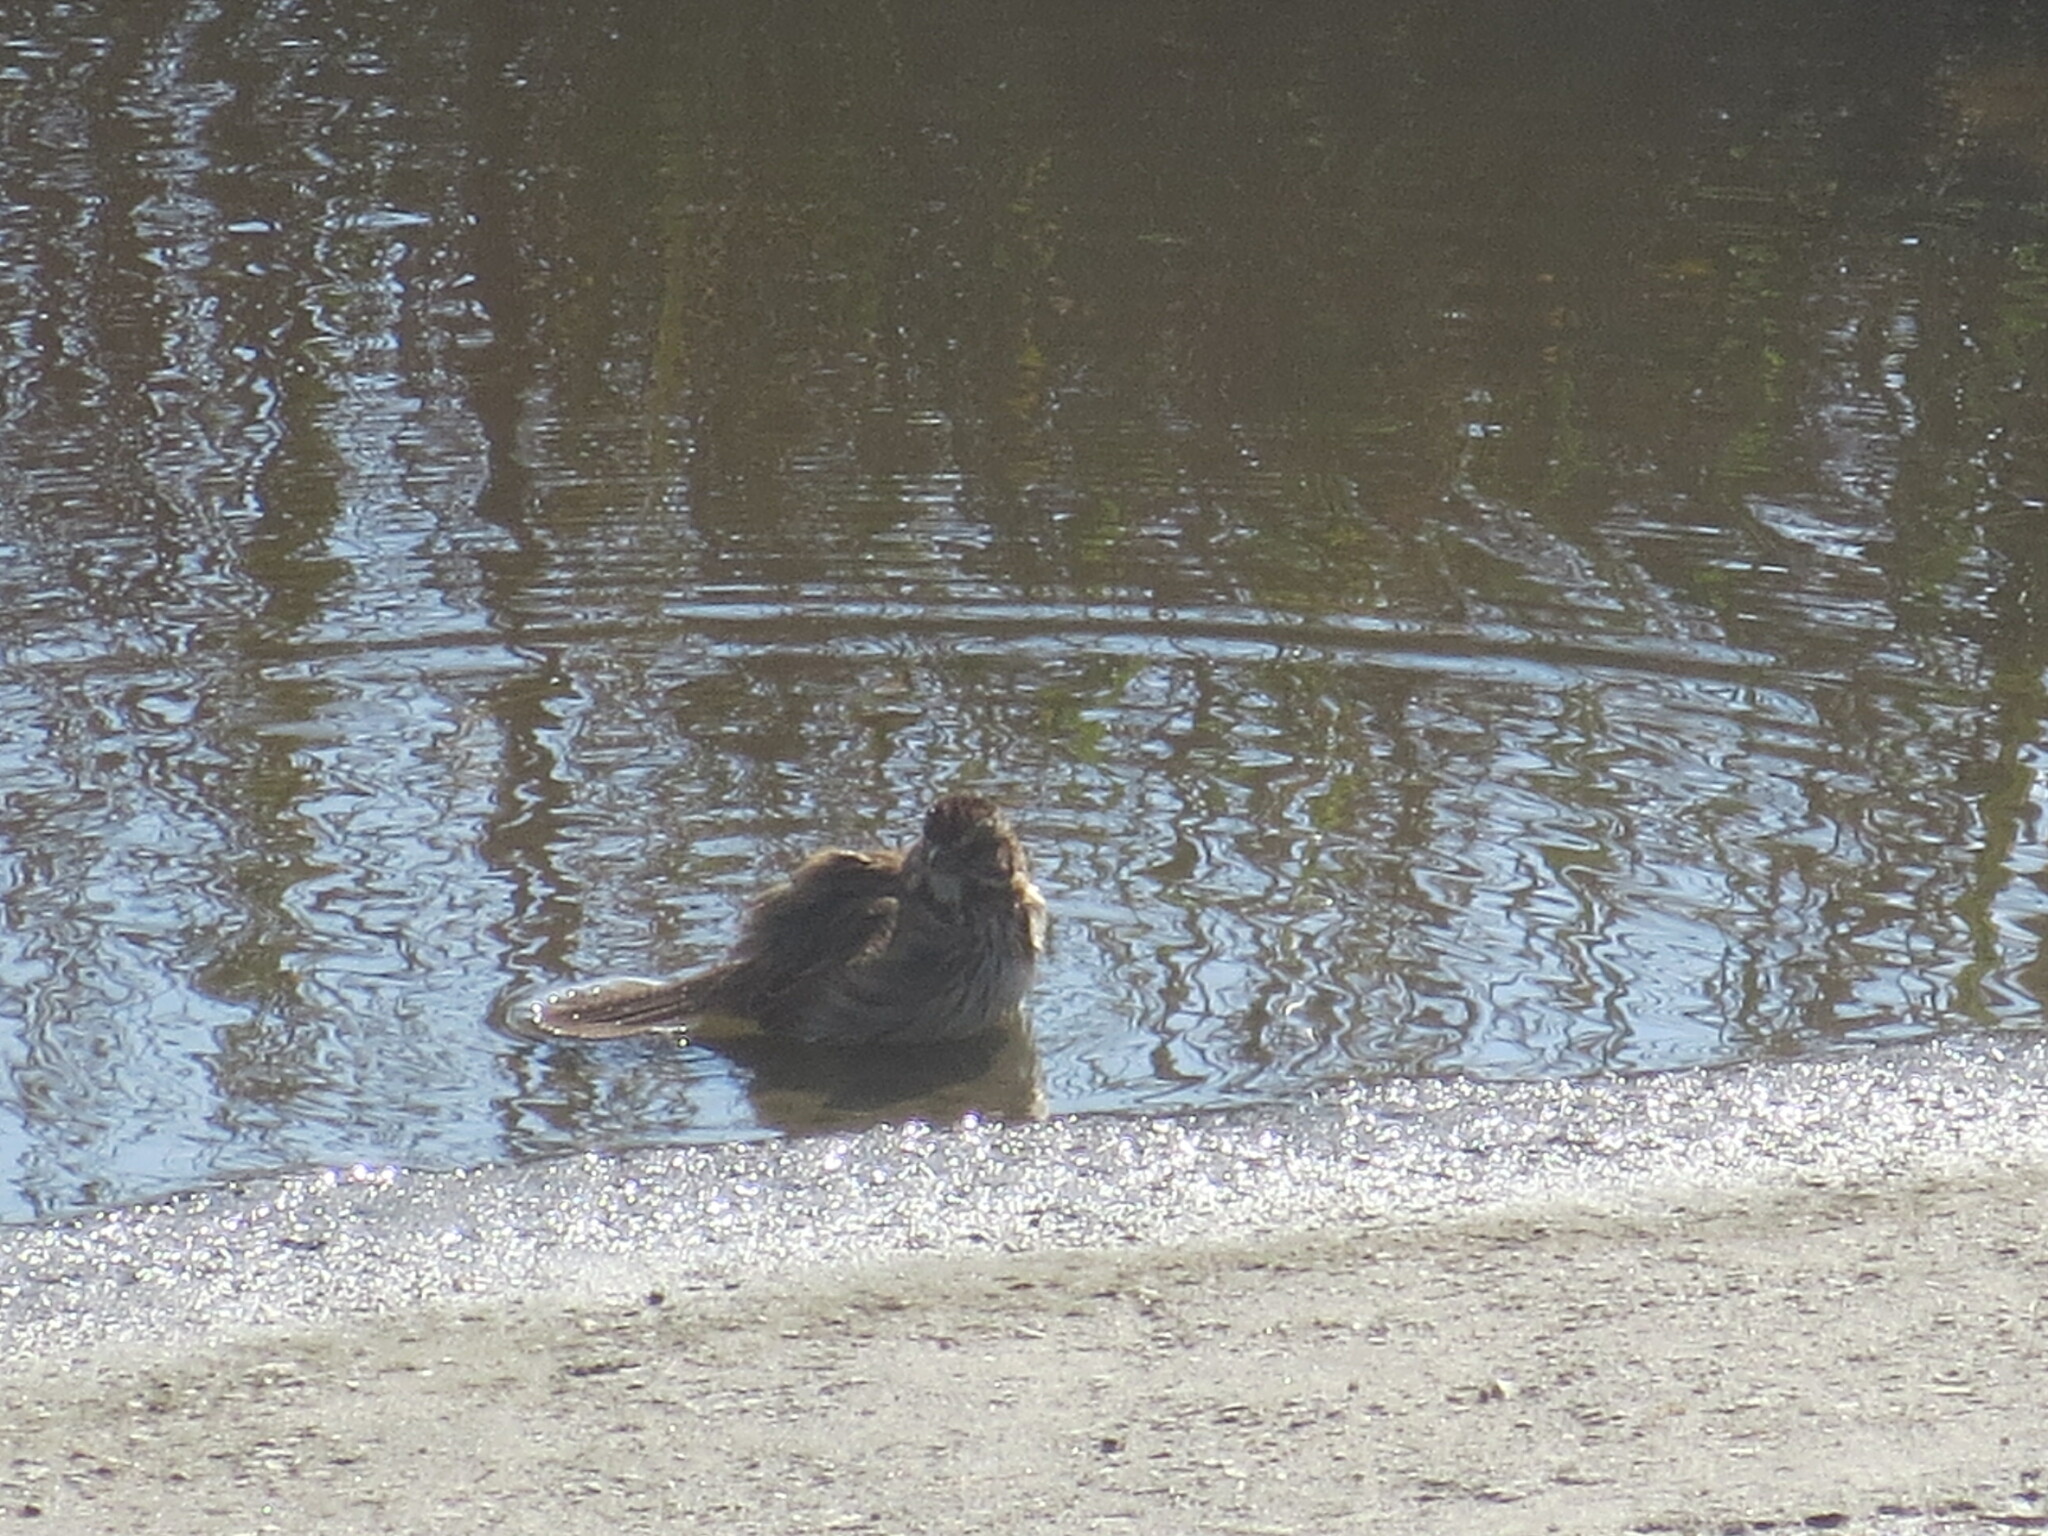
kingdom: Animalia
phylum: Chordata
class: Aves
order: Passeriformes
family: Passerellidae
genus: Melospiza
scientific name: Melospiza melodia
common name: Song sparrow
